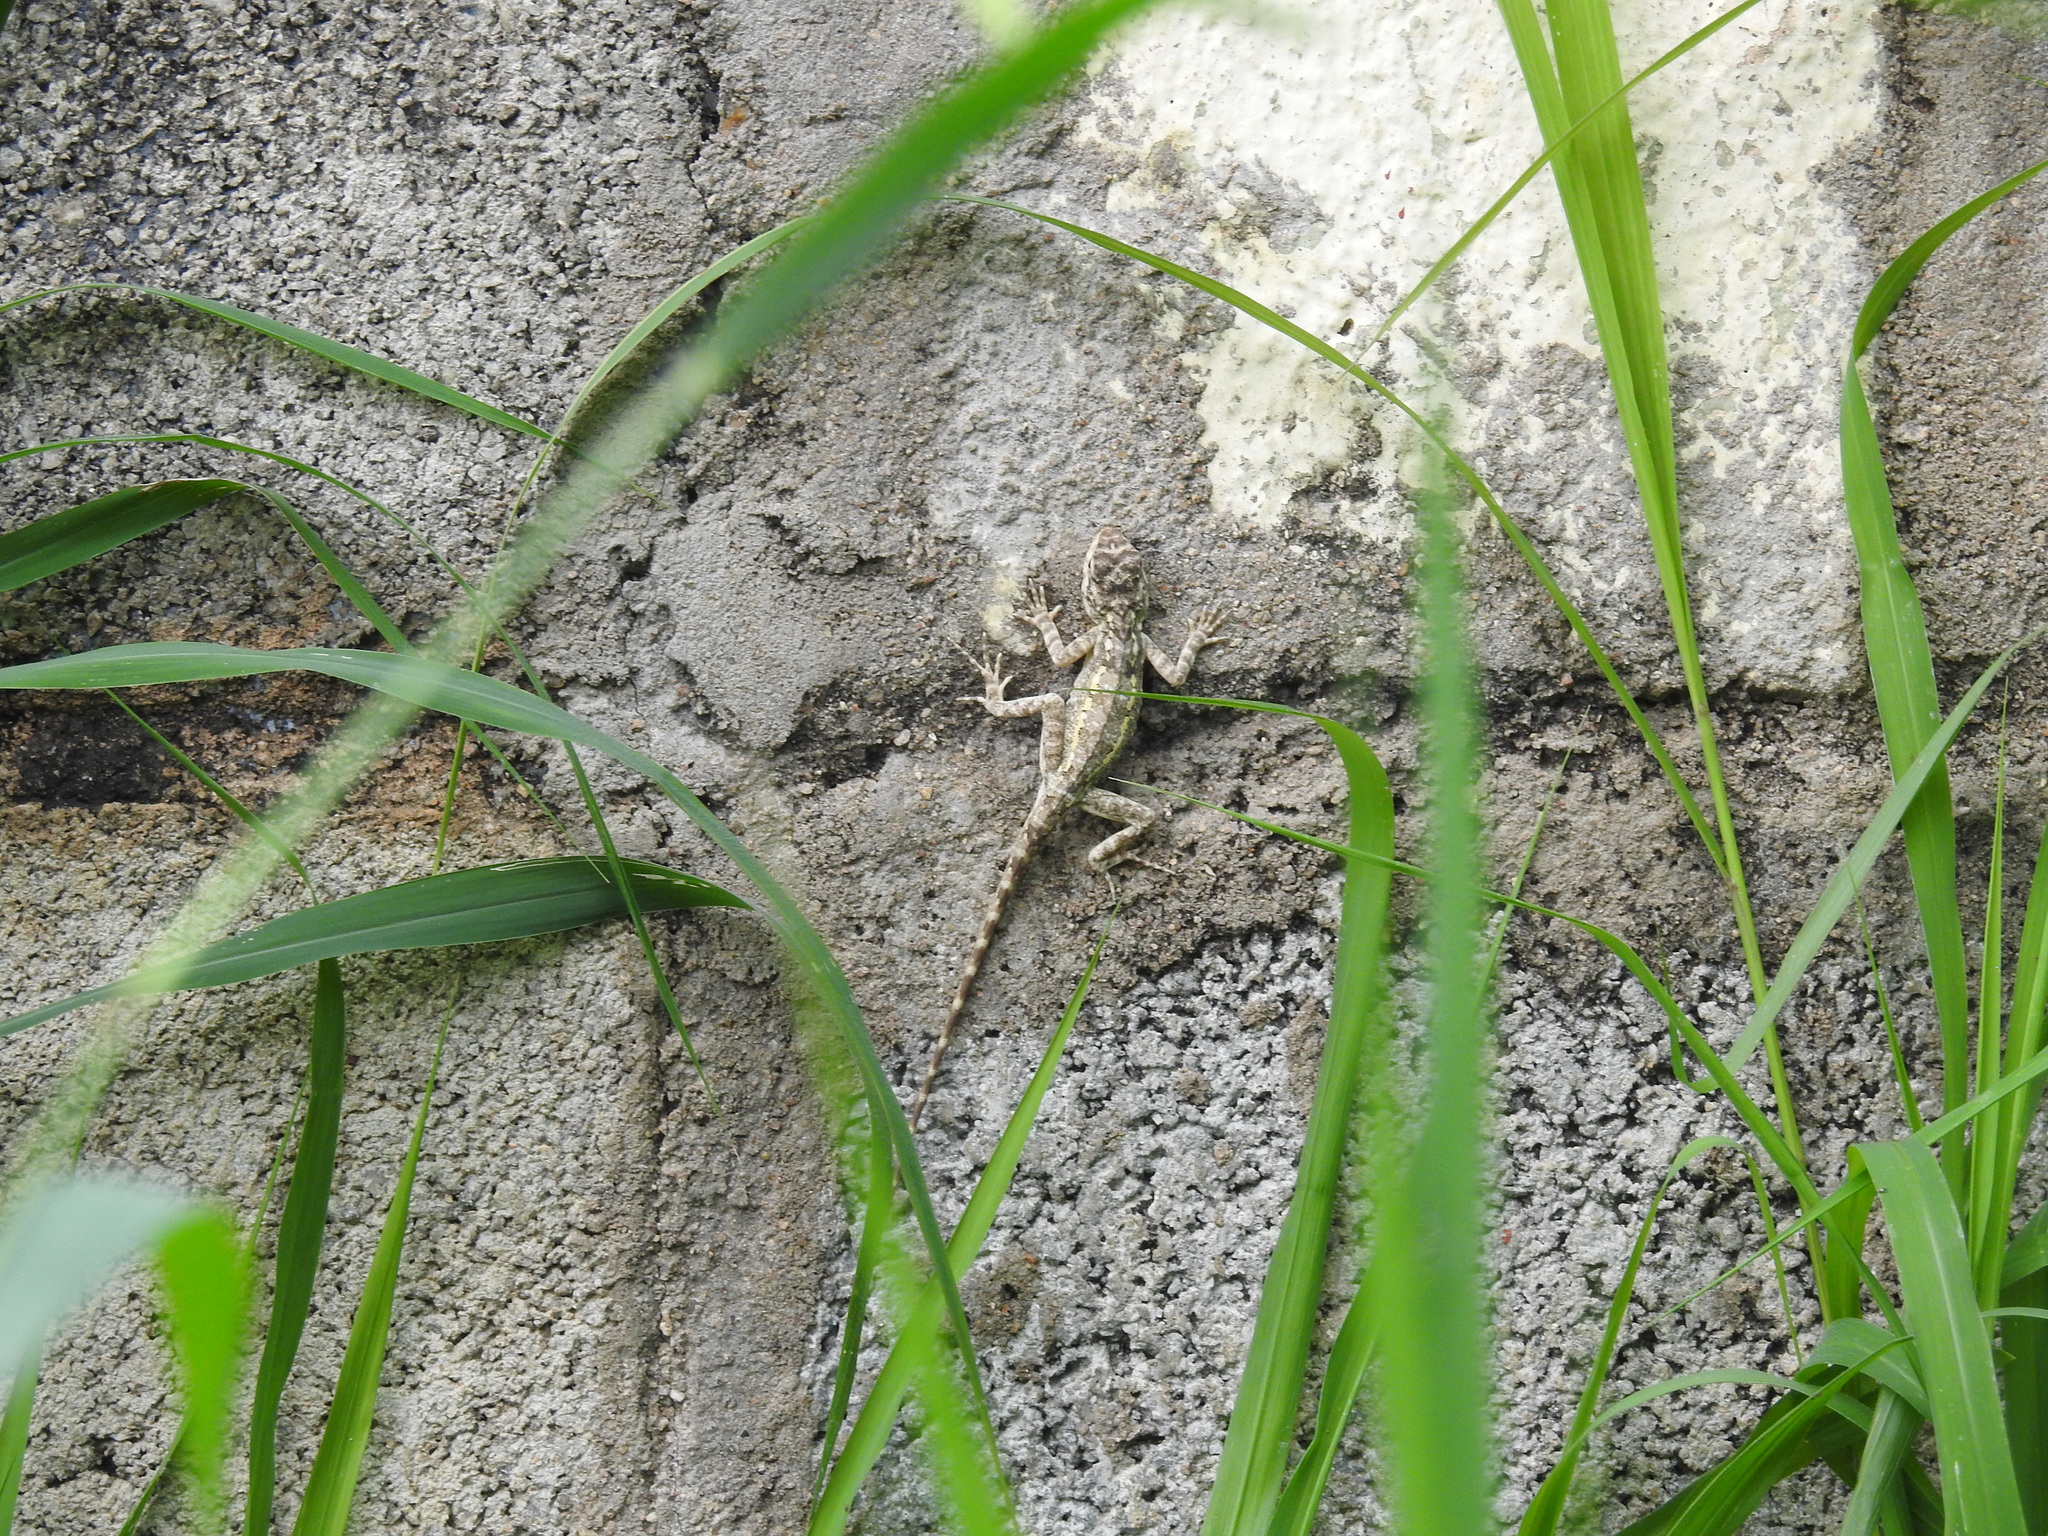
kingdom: Animalia
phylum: Chordata
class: Squamata
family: Agamidae
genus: Psammophilus
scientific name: Psammophilus dorsalis
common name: South indian rock agama
